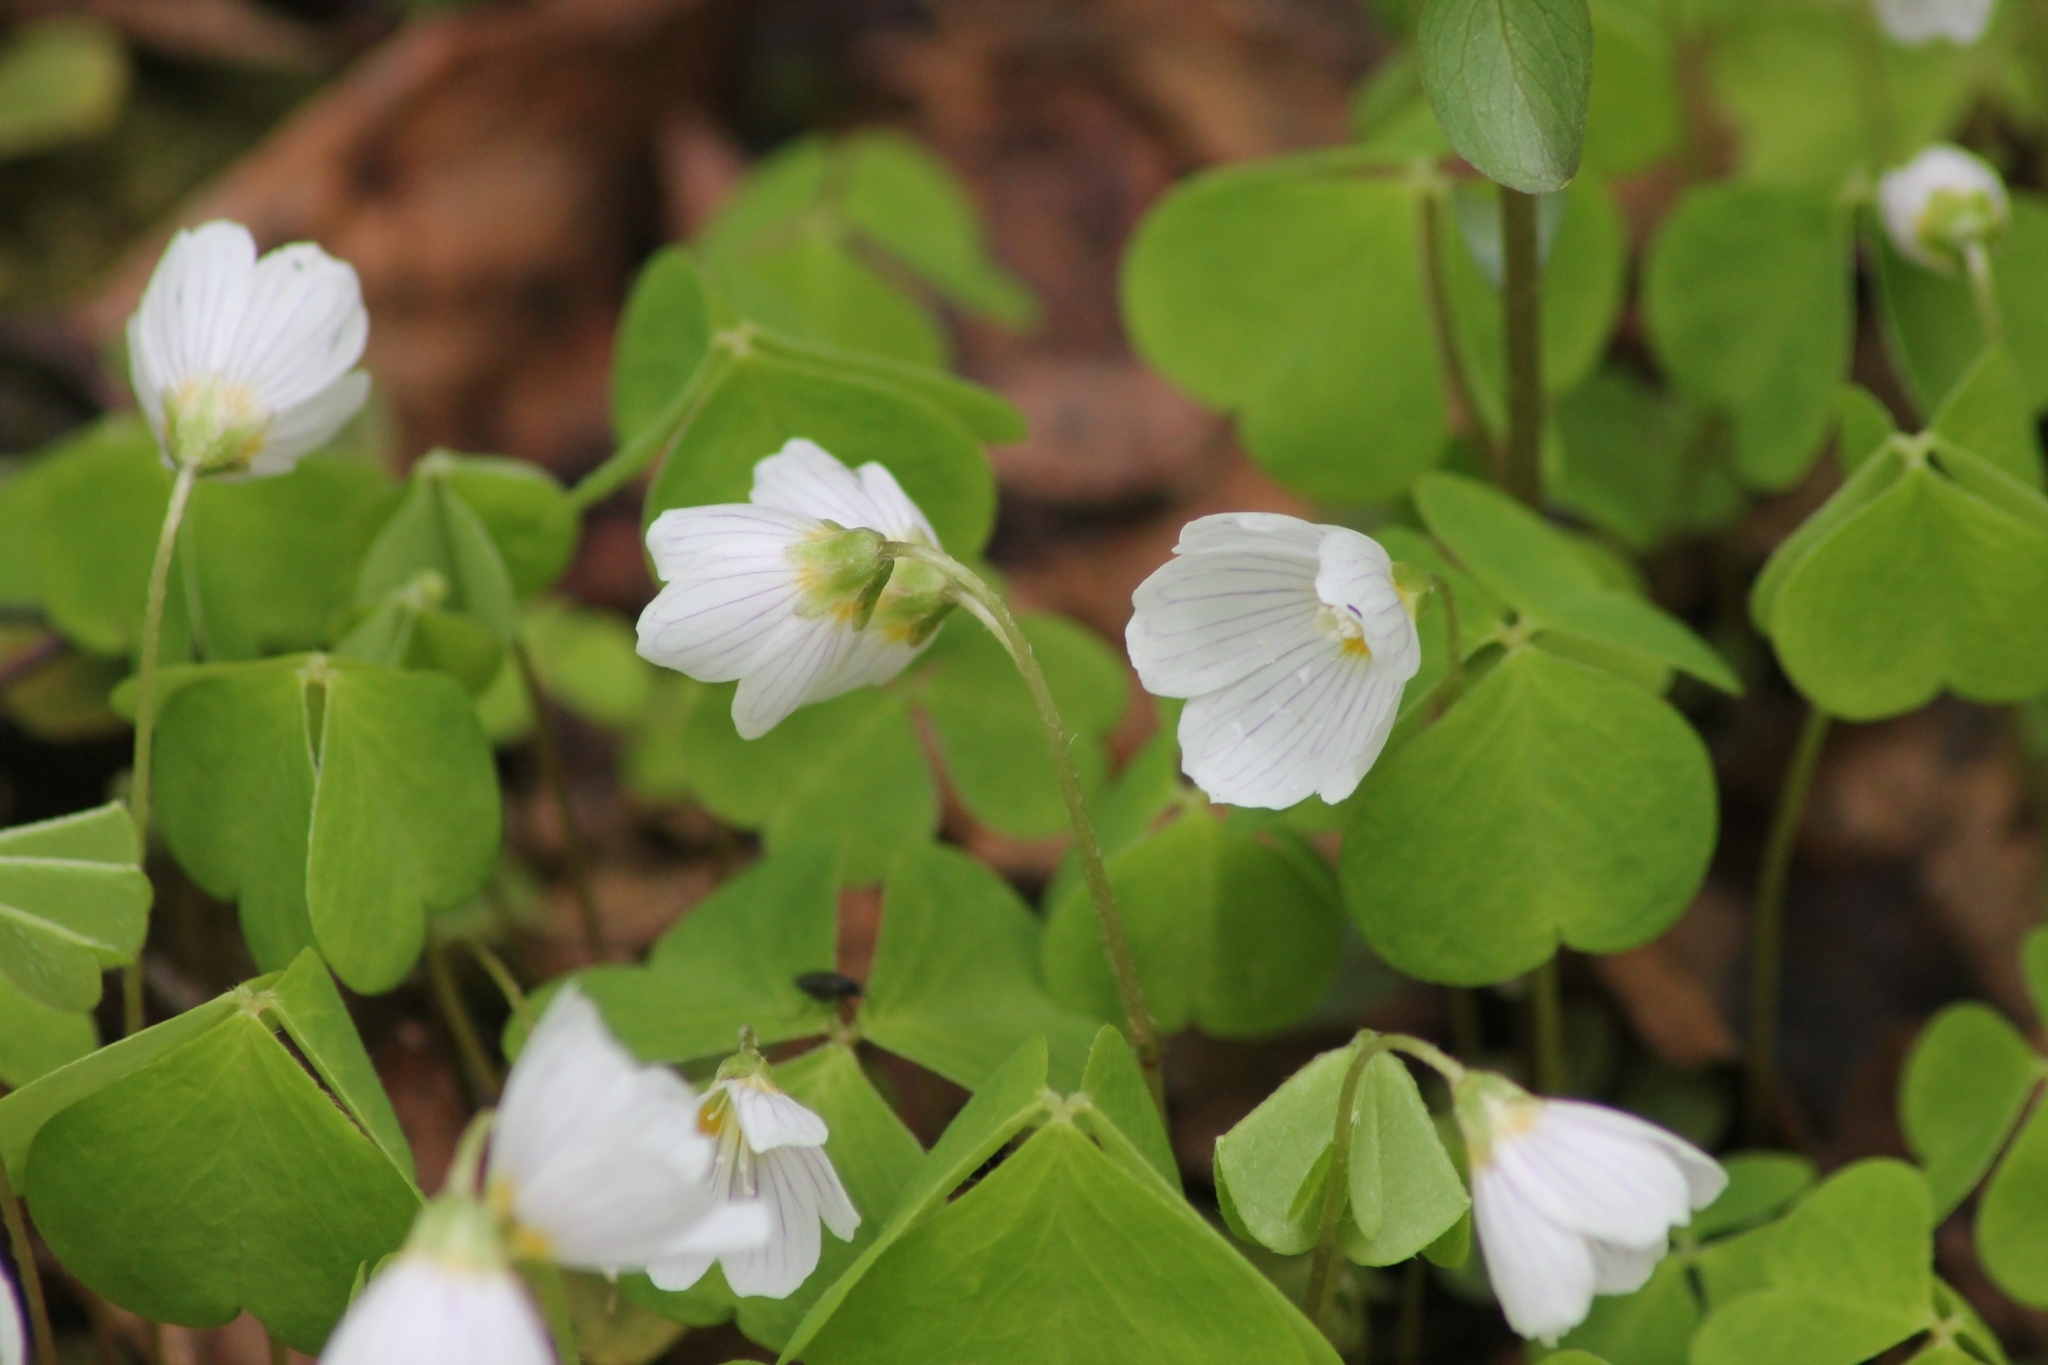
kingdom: Plantae
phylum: Tracheophyta
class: Magnoliopsida
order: Oxalidales
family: Oxalidaceae
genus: Oxalis
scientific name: Oxalis acetosella
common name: Wood-sorrel
